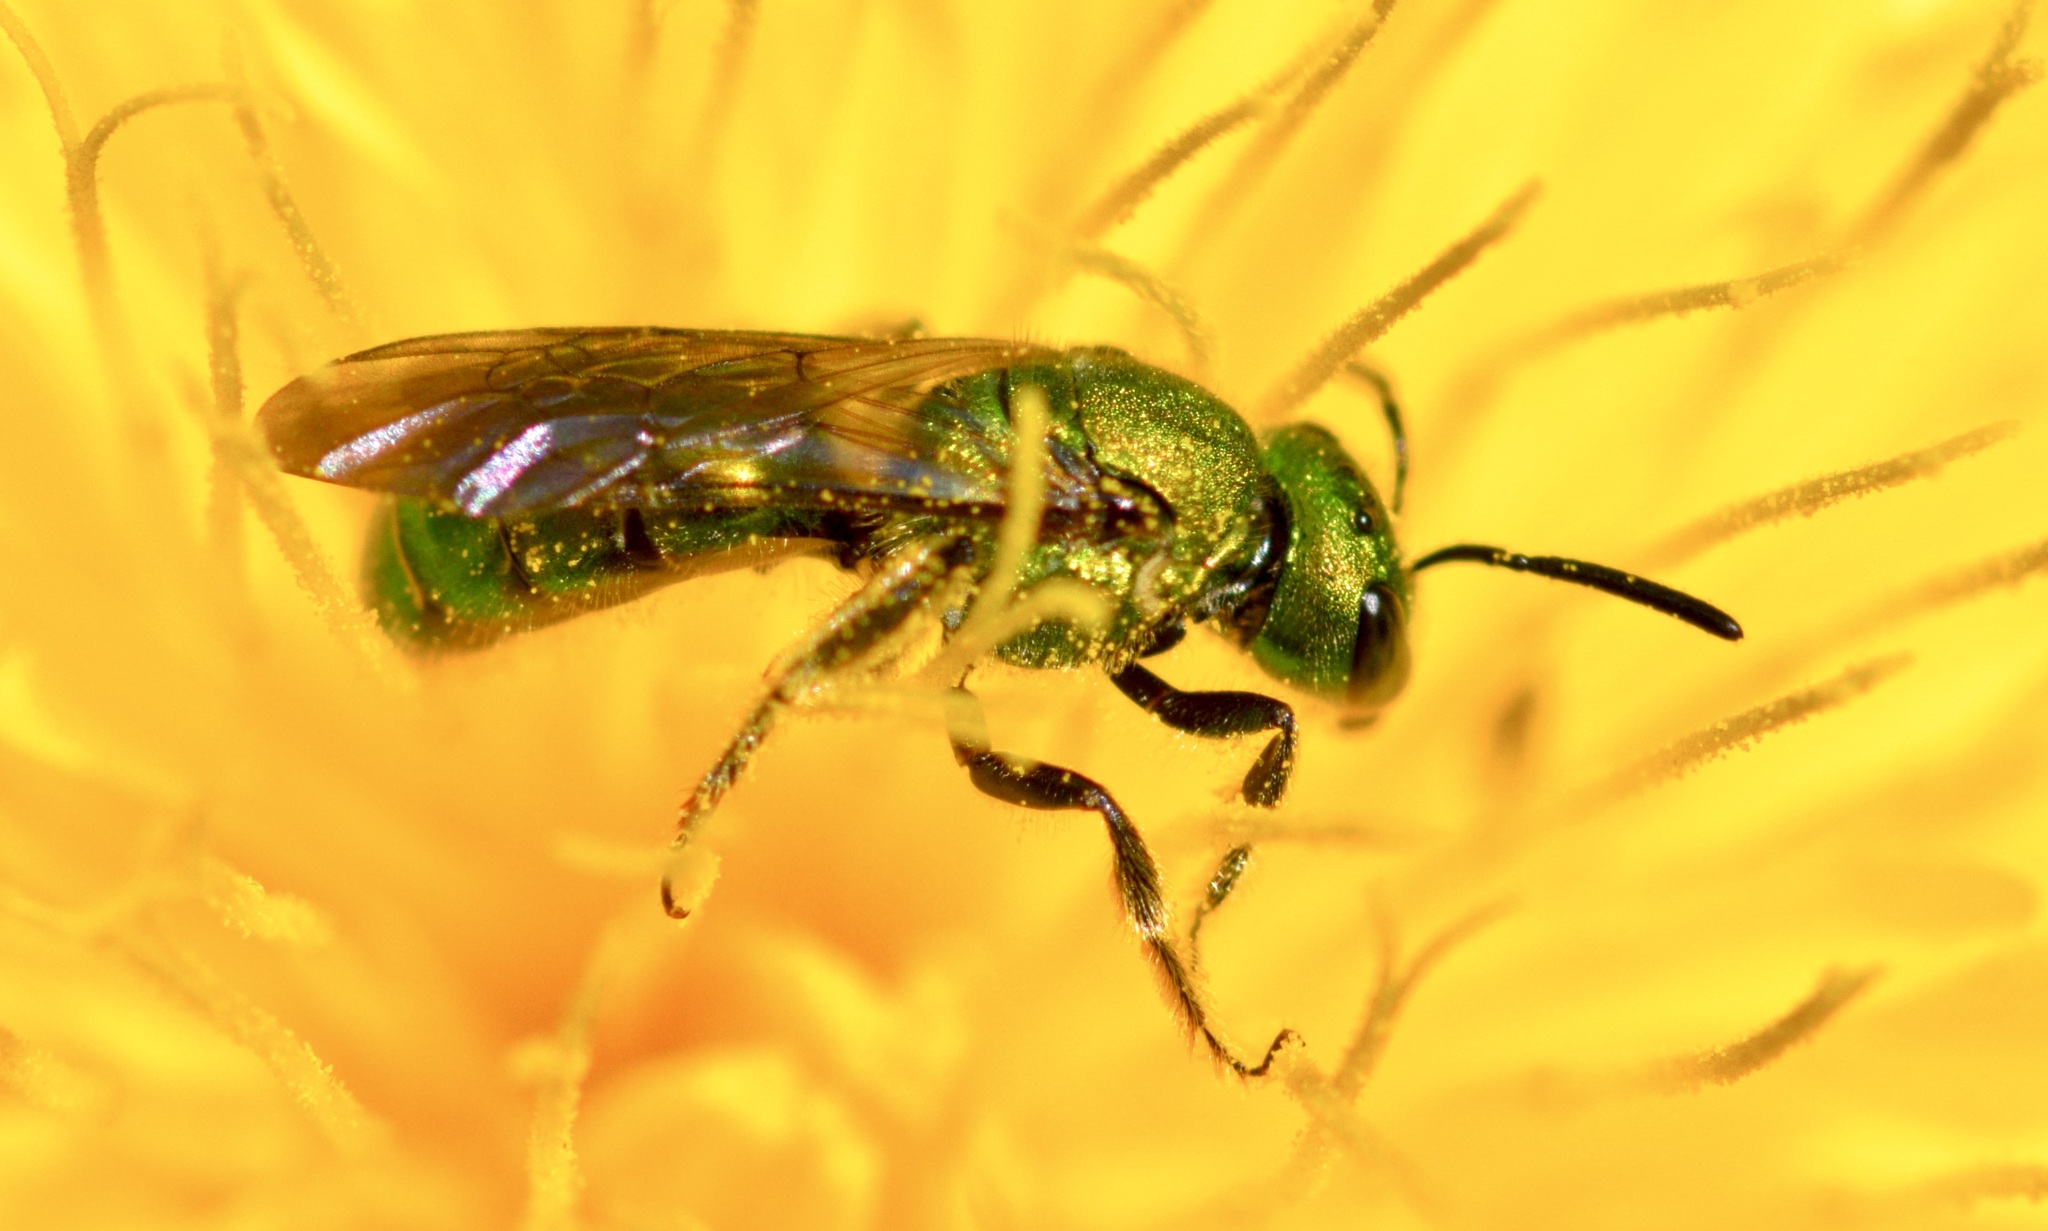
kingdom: Animalia
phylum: Arthropoda
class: Insecta
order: Hymenoptera
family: Halictidae
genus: Augochlora
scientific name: Augochlora pura
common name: Pure green sweat bee
